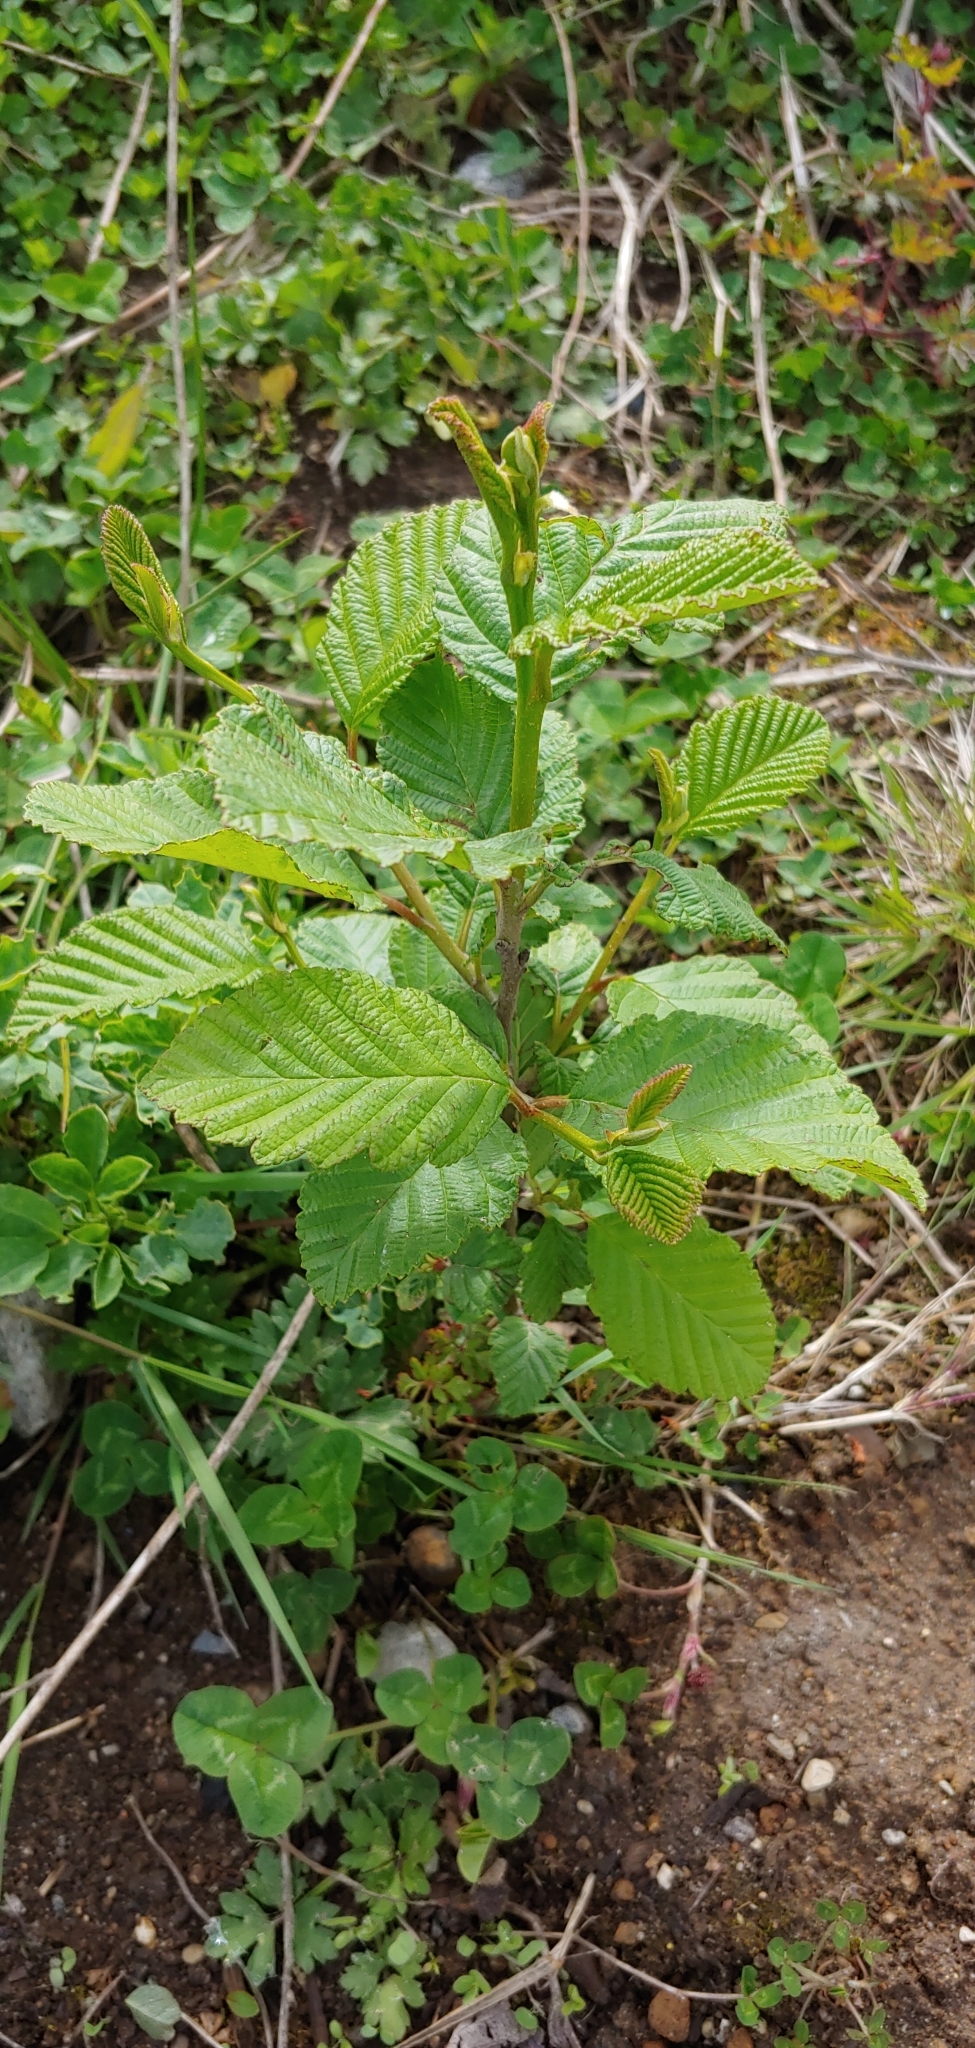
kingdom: Plantae
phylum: Tracheophyta
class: Magnoliopsida
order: Fagales
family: Betulaceae
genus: Alnus
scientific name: Alnus rubra
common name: Red alder
